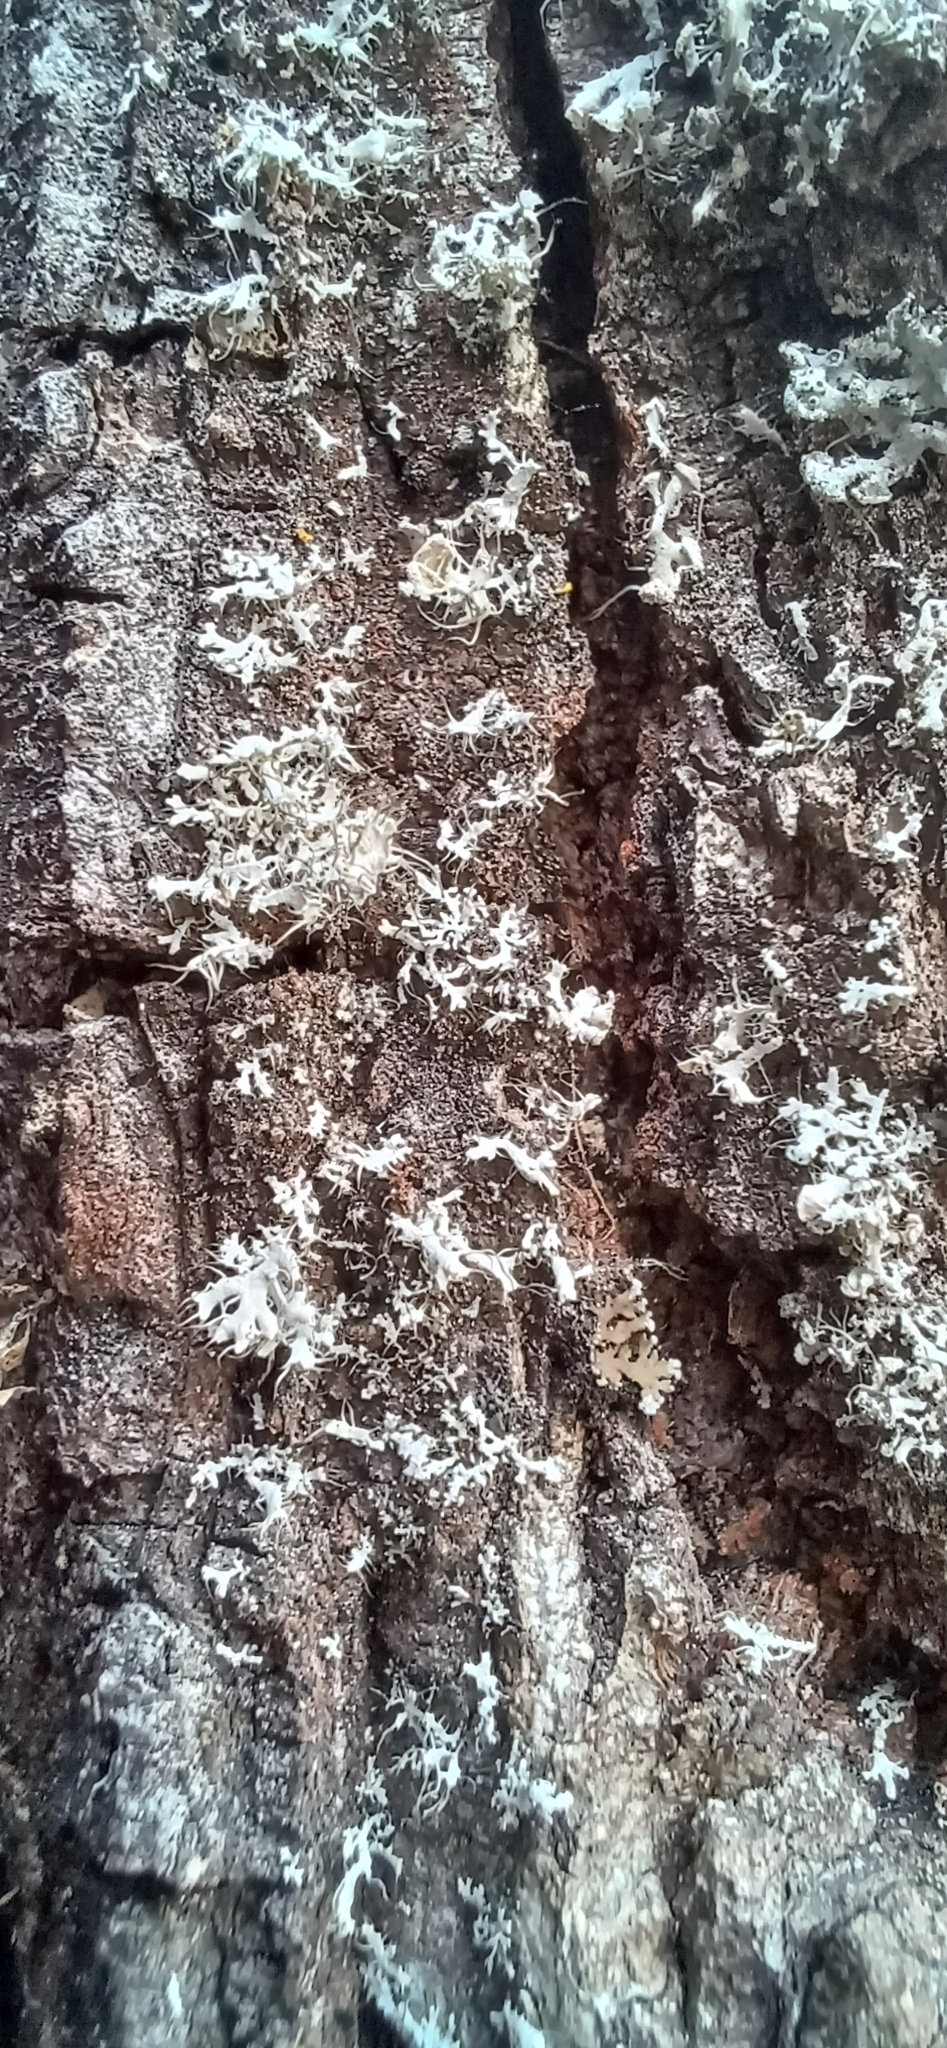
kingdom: Fungi
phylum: Ascomycota
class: Lecanoromycetes
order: Caliciales
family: Physciaceae
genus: Physcia
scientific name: Physcia adscendens
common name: Hooded rosette lichen
